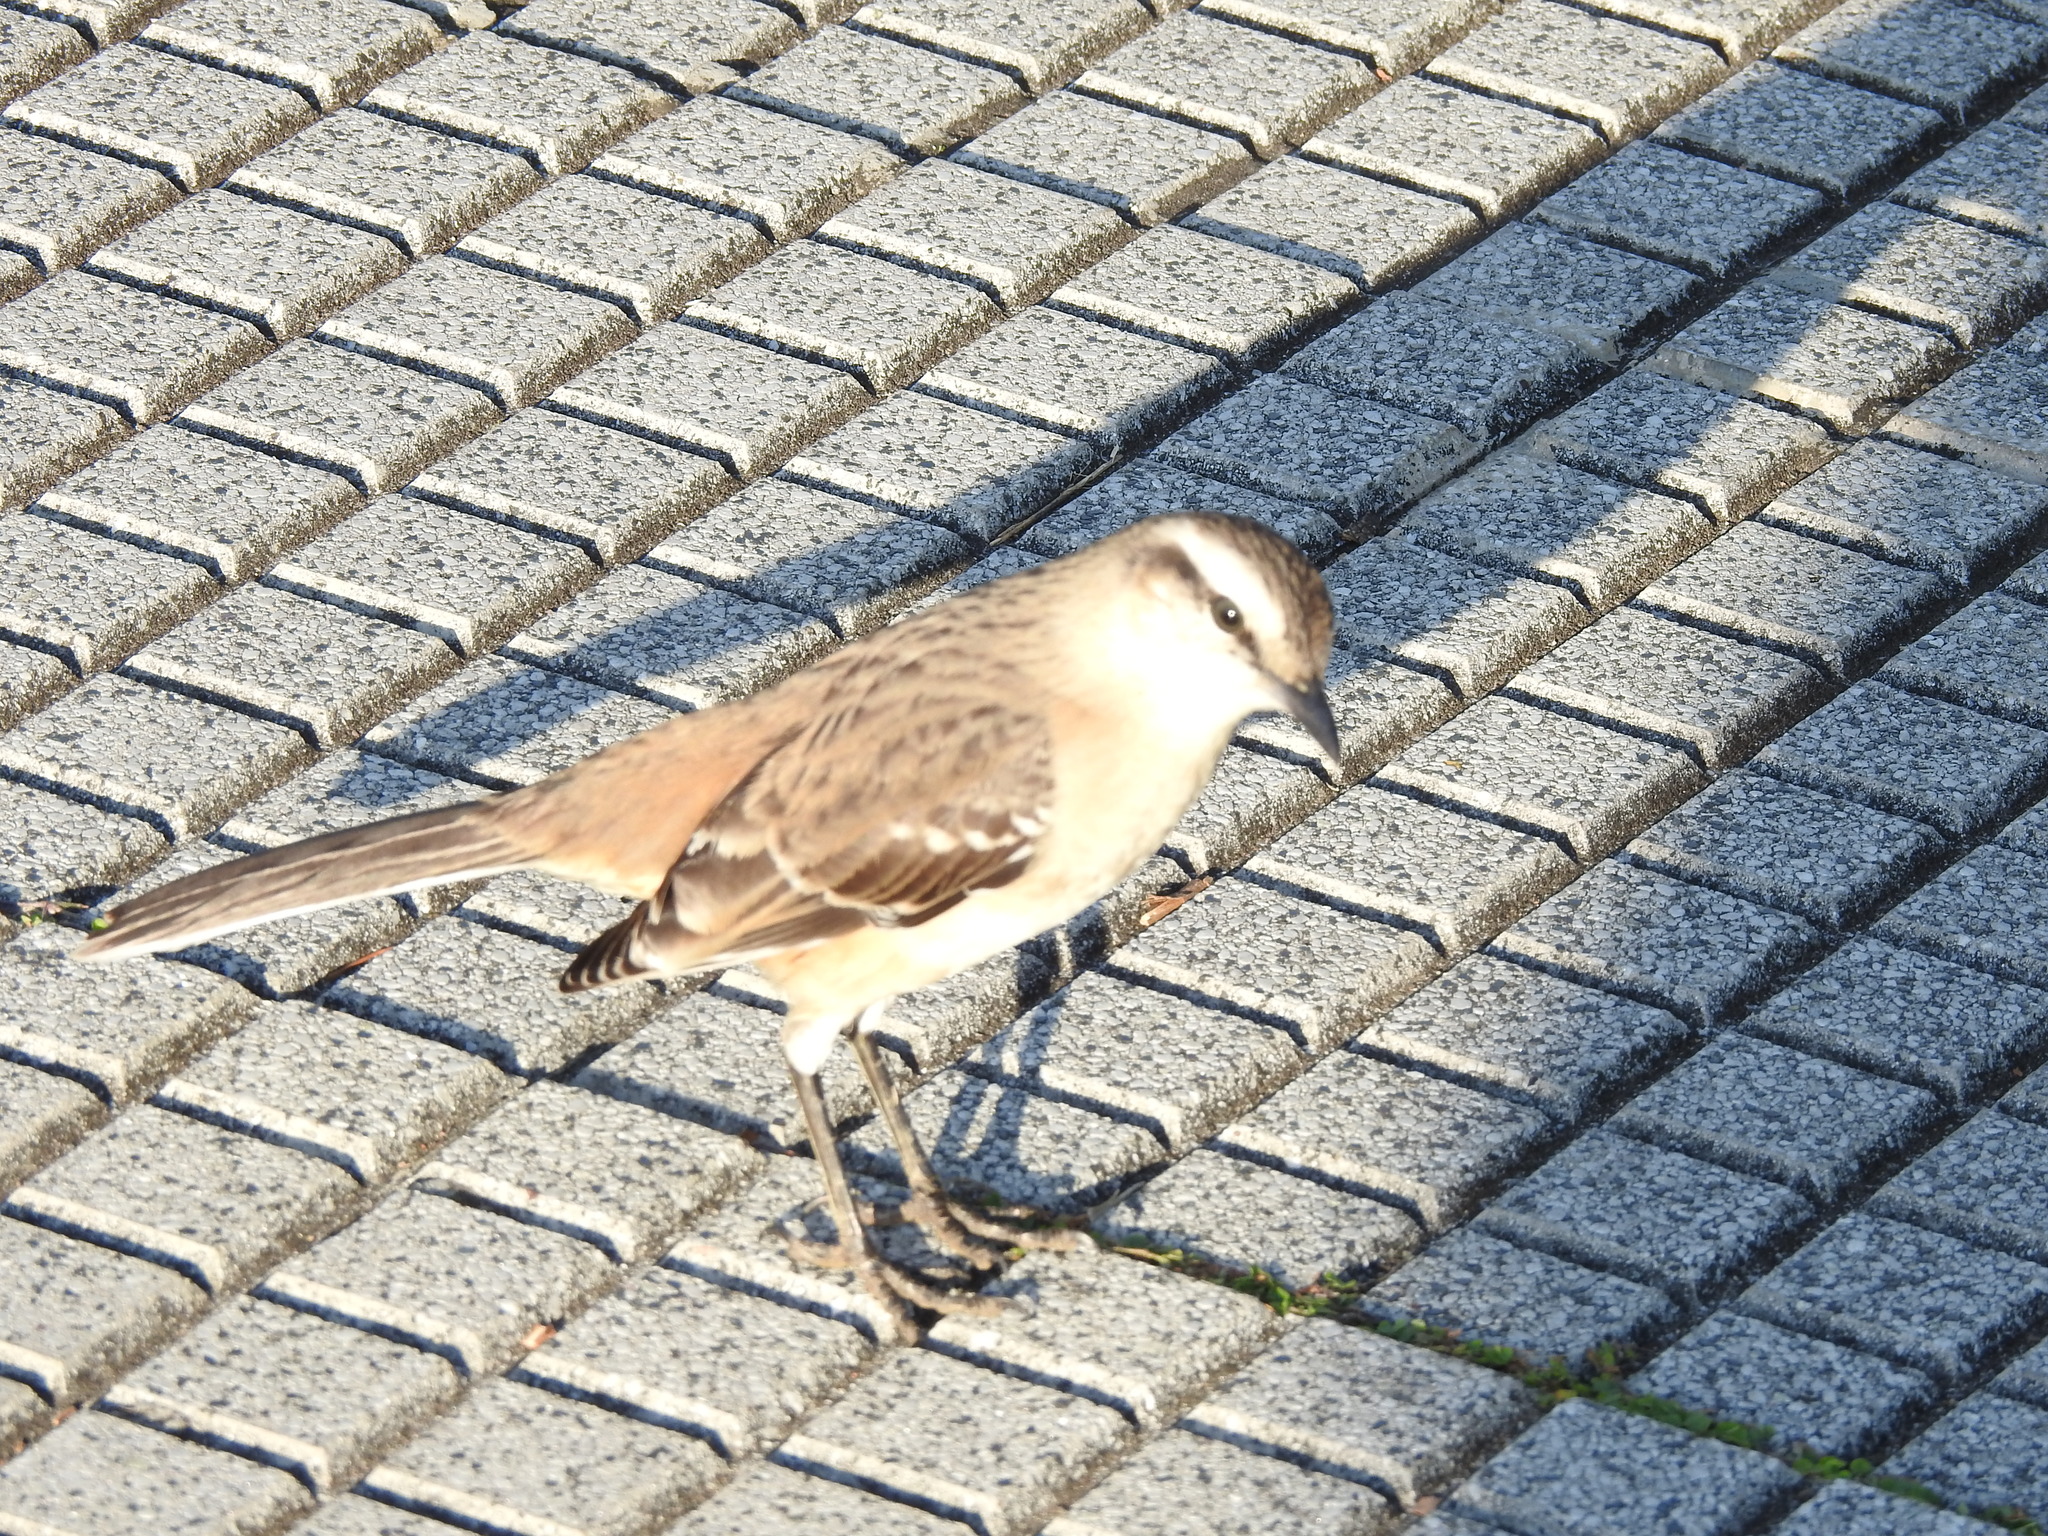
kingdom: Animalia
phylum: Chordata
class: Aves
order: Passeriformes
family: Mimidae
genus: Mimus
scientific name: Mimus saturninus
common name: Chalk-browed mockingbird
